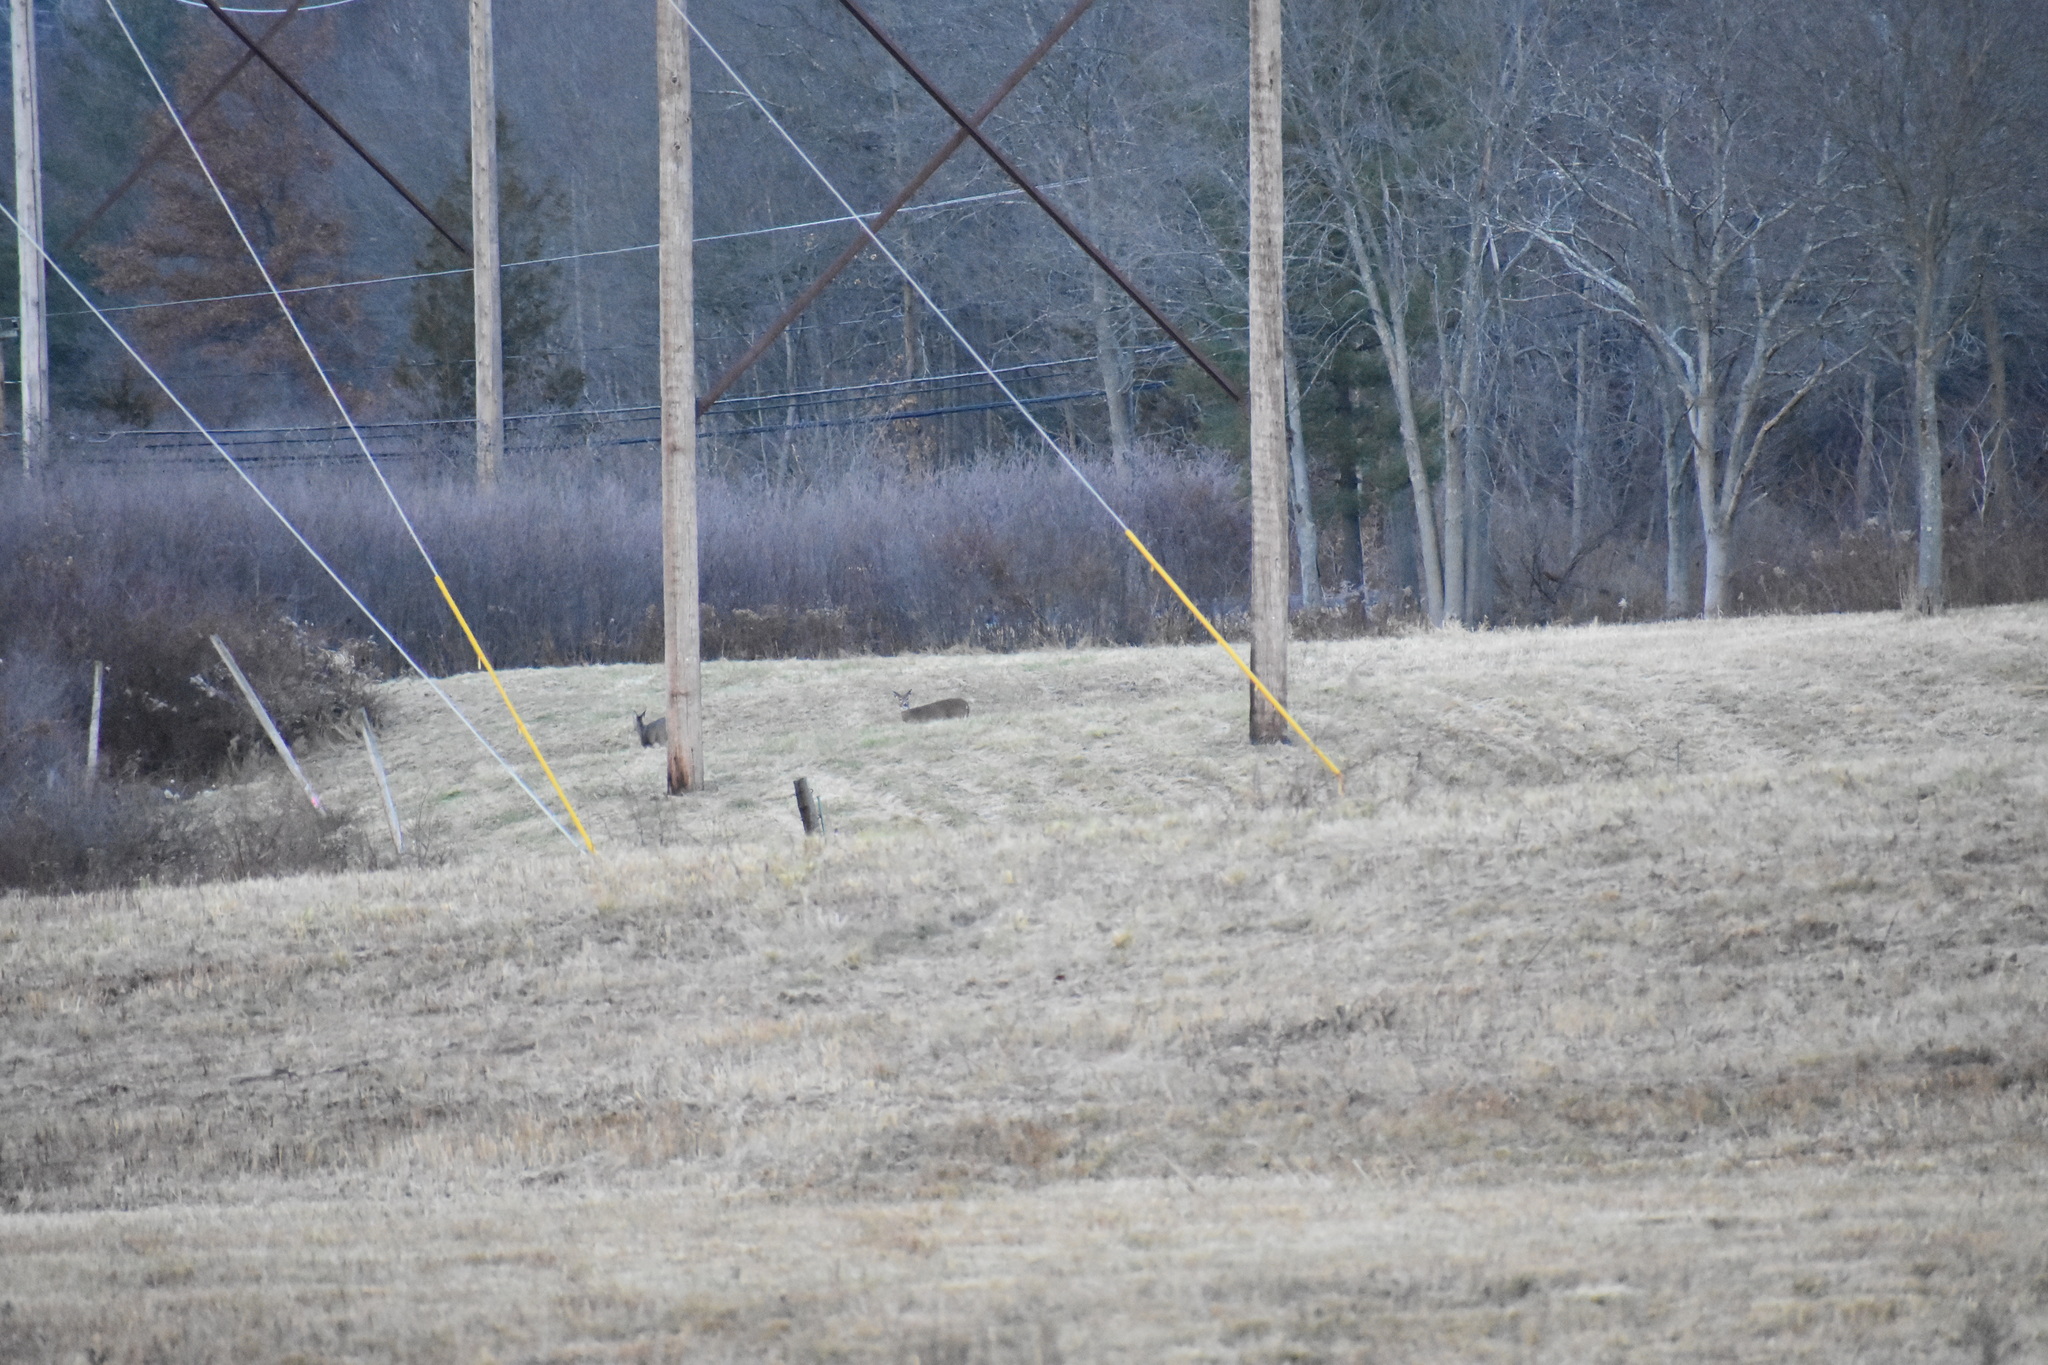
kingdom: Animalia
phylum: Chordata
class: Mammalia
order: Artiodactyla
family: Cervidae
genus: Odocoileus
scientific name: Odocoileus virginianus
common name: White-tailed deer
